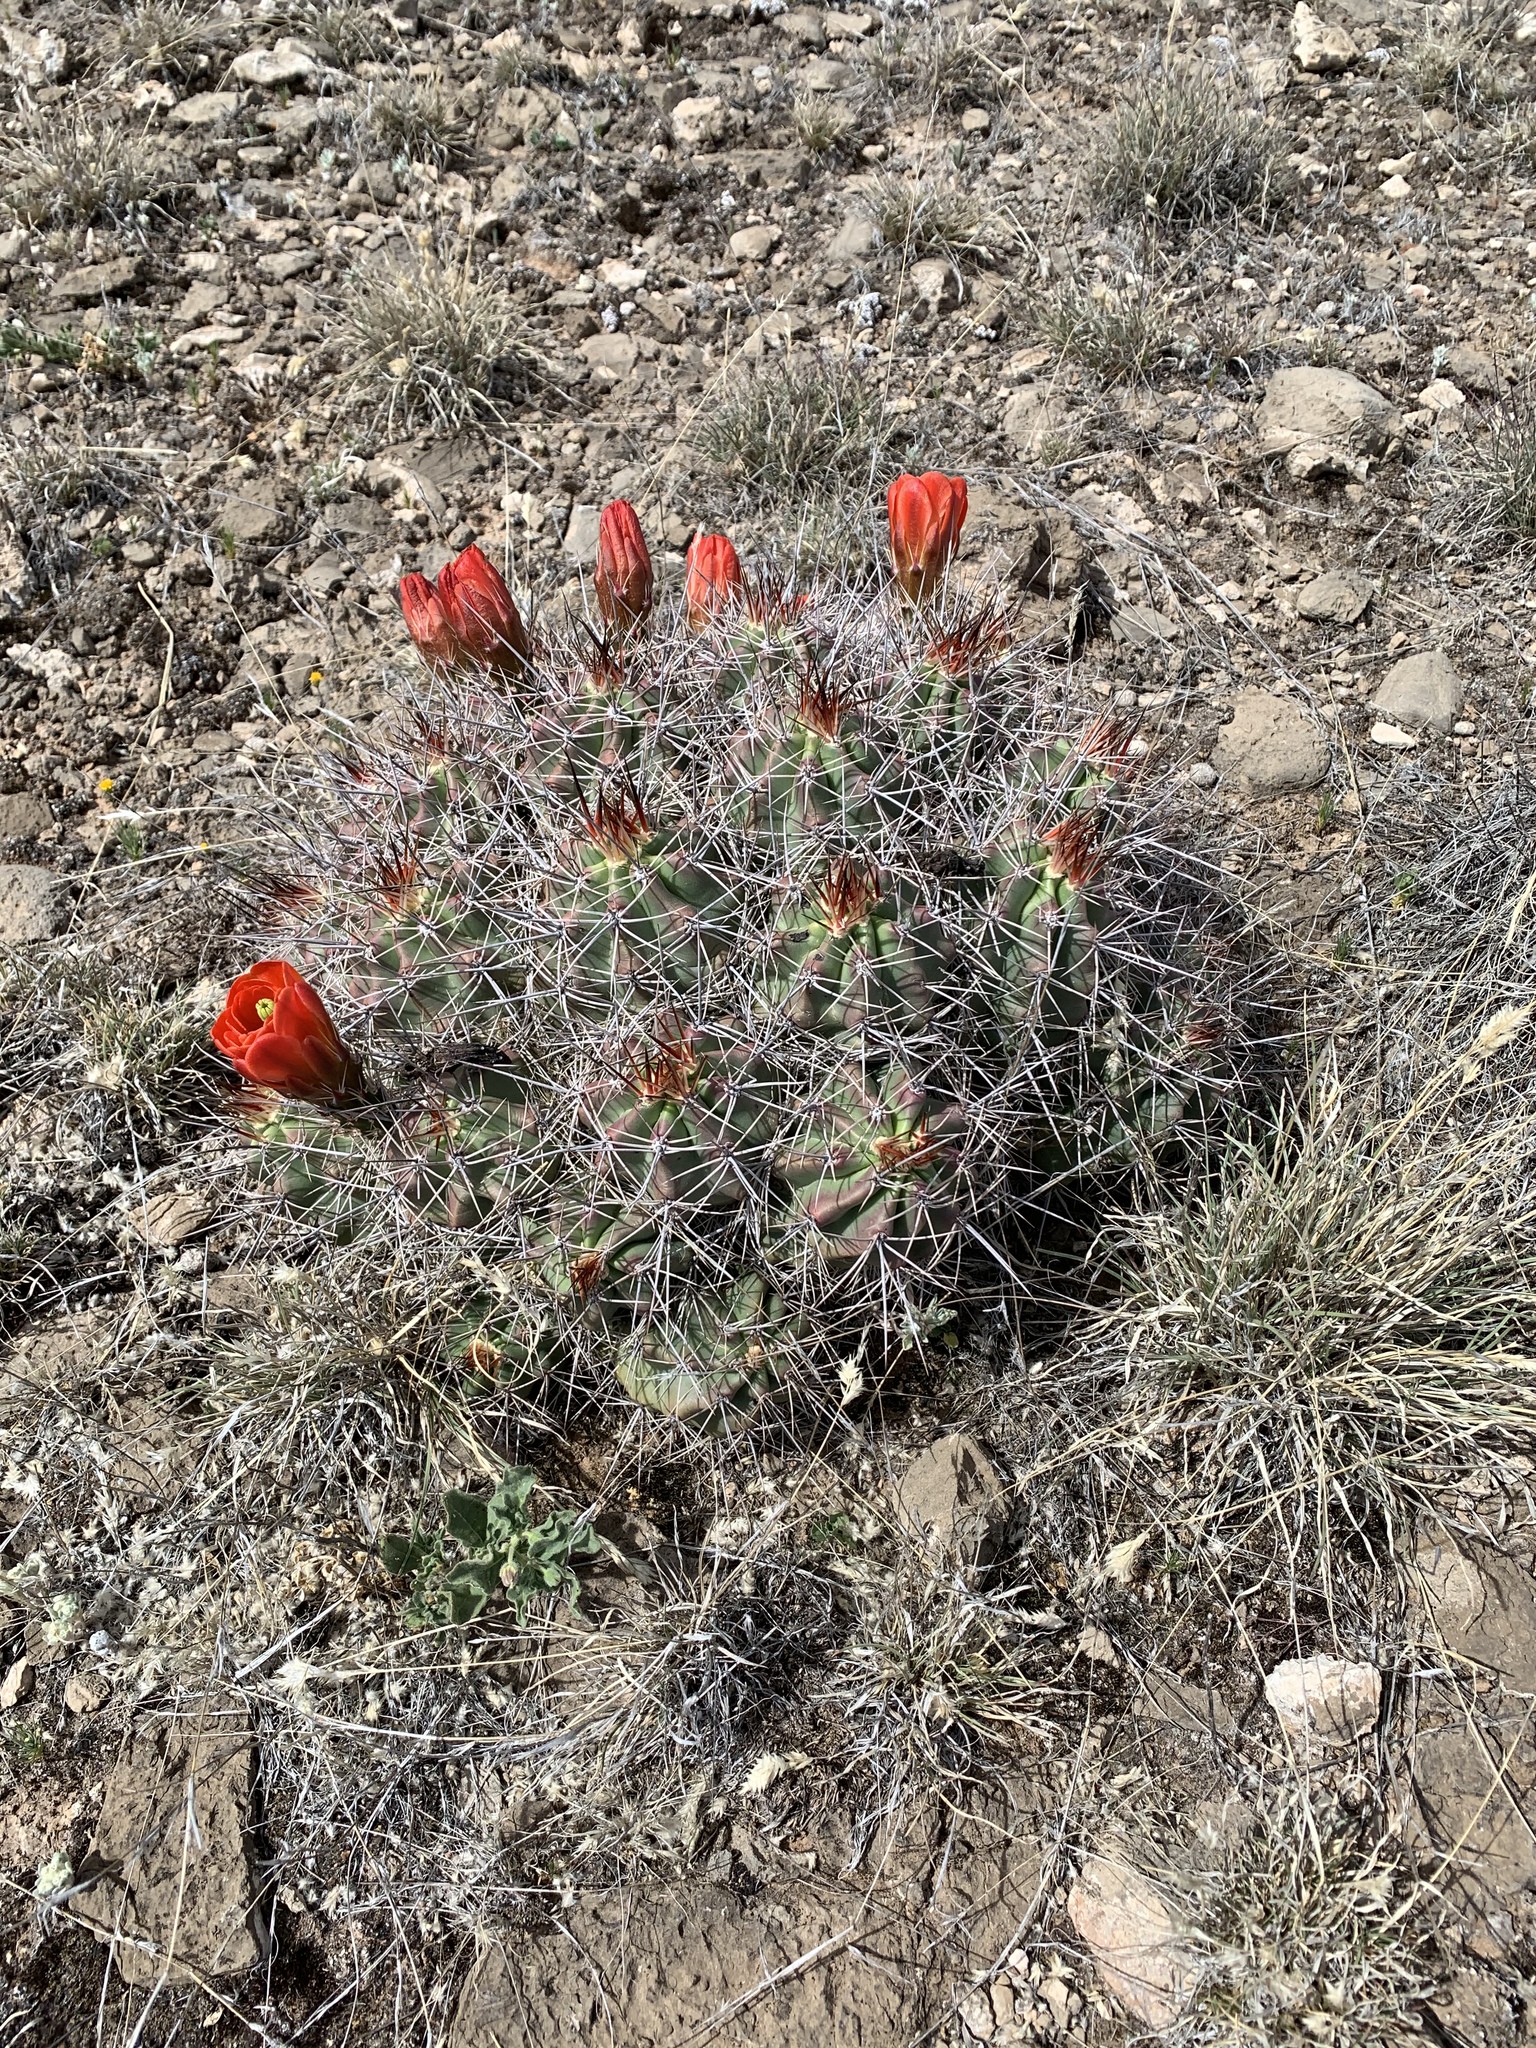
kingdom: Plantae
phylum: Tracheophyta
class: Magnoliopsida
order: Caryophyllales
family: Cactaceae
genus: Echinocereus
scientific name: Echinocereus coccineus
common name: Scarlet hedgehog cactus
